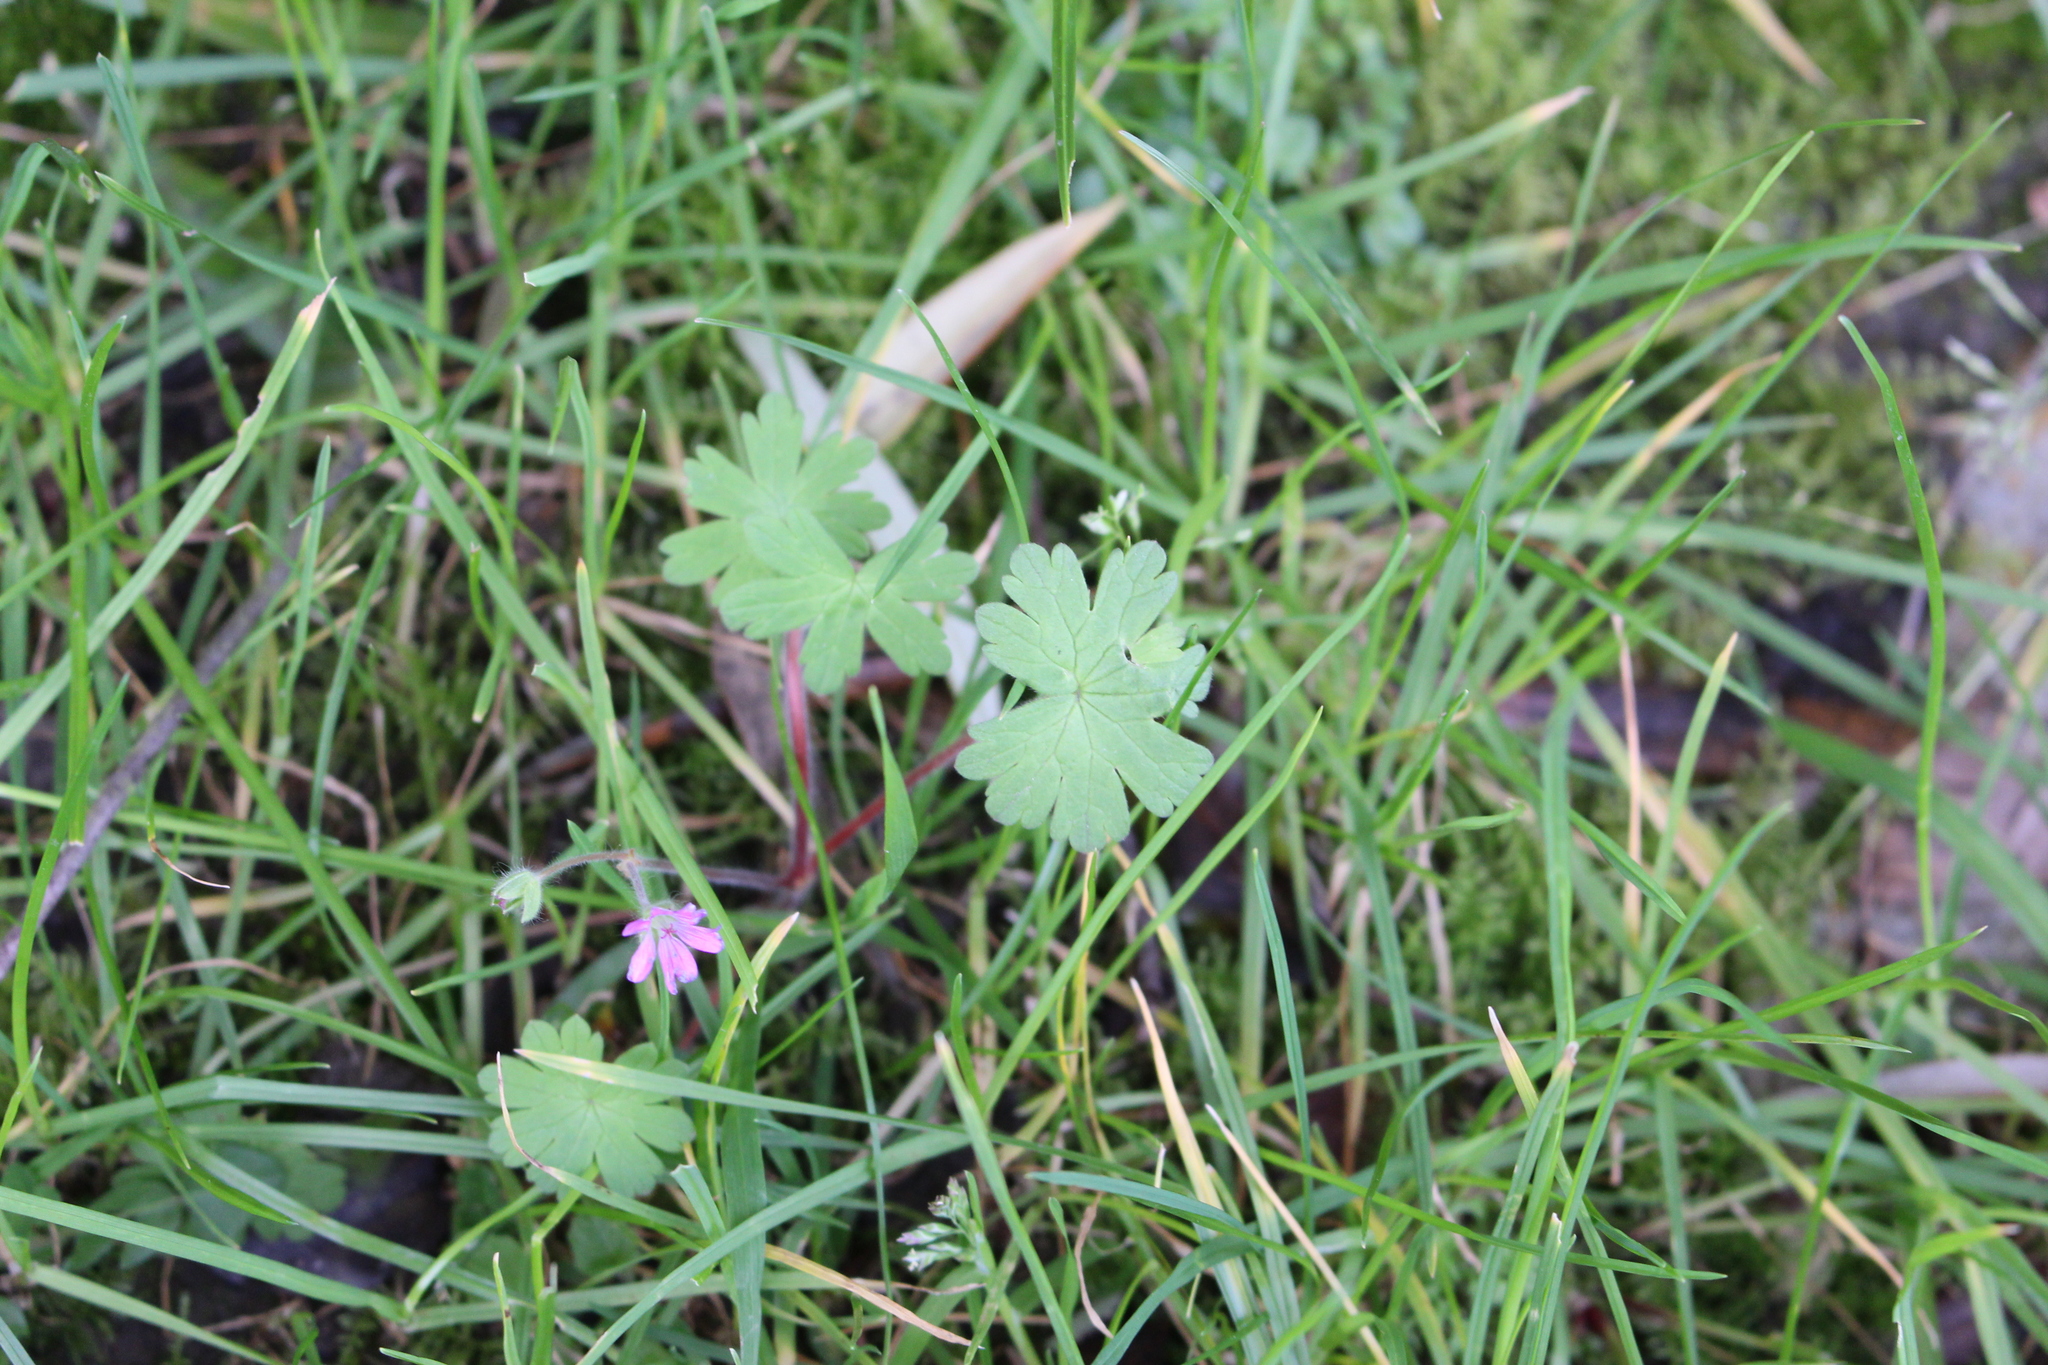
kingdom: Plantae
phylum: Tracheophyta
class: Magnoliopsida
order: Geraniales
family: Geraniaceae
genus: Geranium
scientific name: Geranium molle
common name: Dove's-foot crane's-bill
